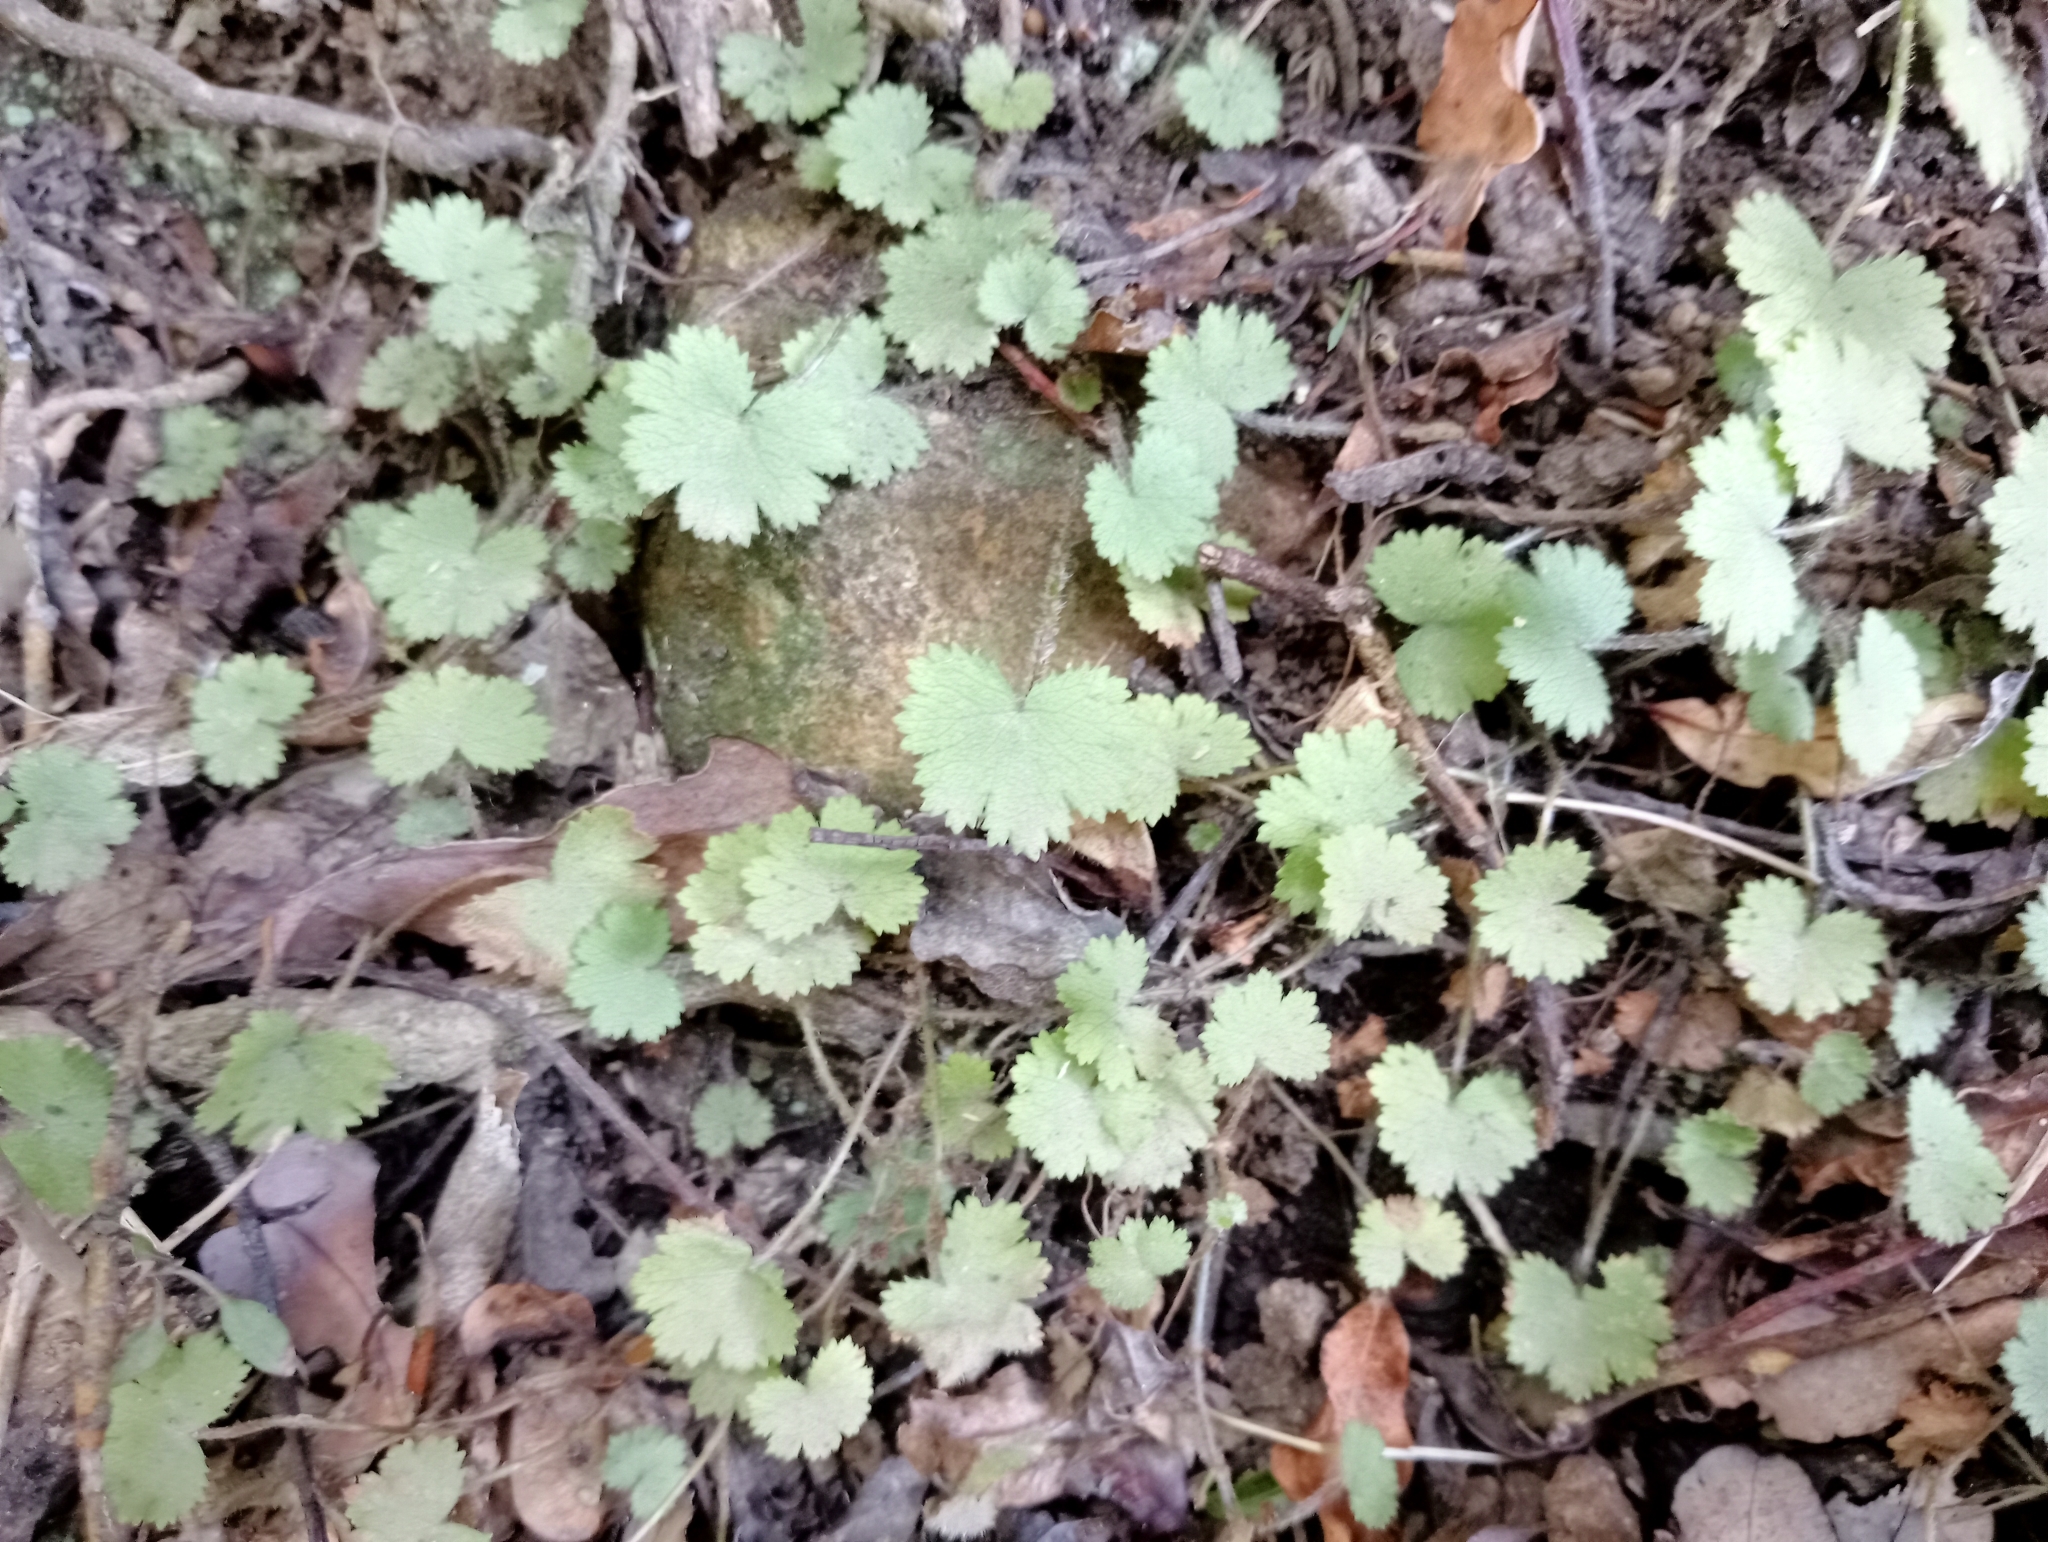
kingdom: Plantae
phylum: Tracheophyta
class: Magnoliopsida
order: Apiales
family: Araliaceae
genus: Hydrocotyle
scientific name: Hydrocotyle moschata
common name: Hairy pennywort
